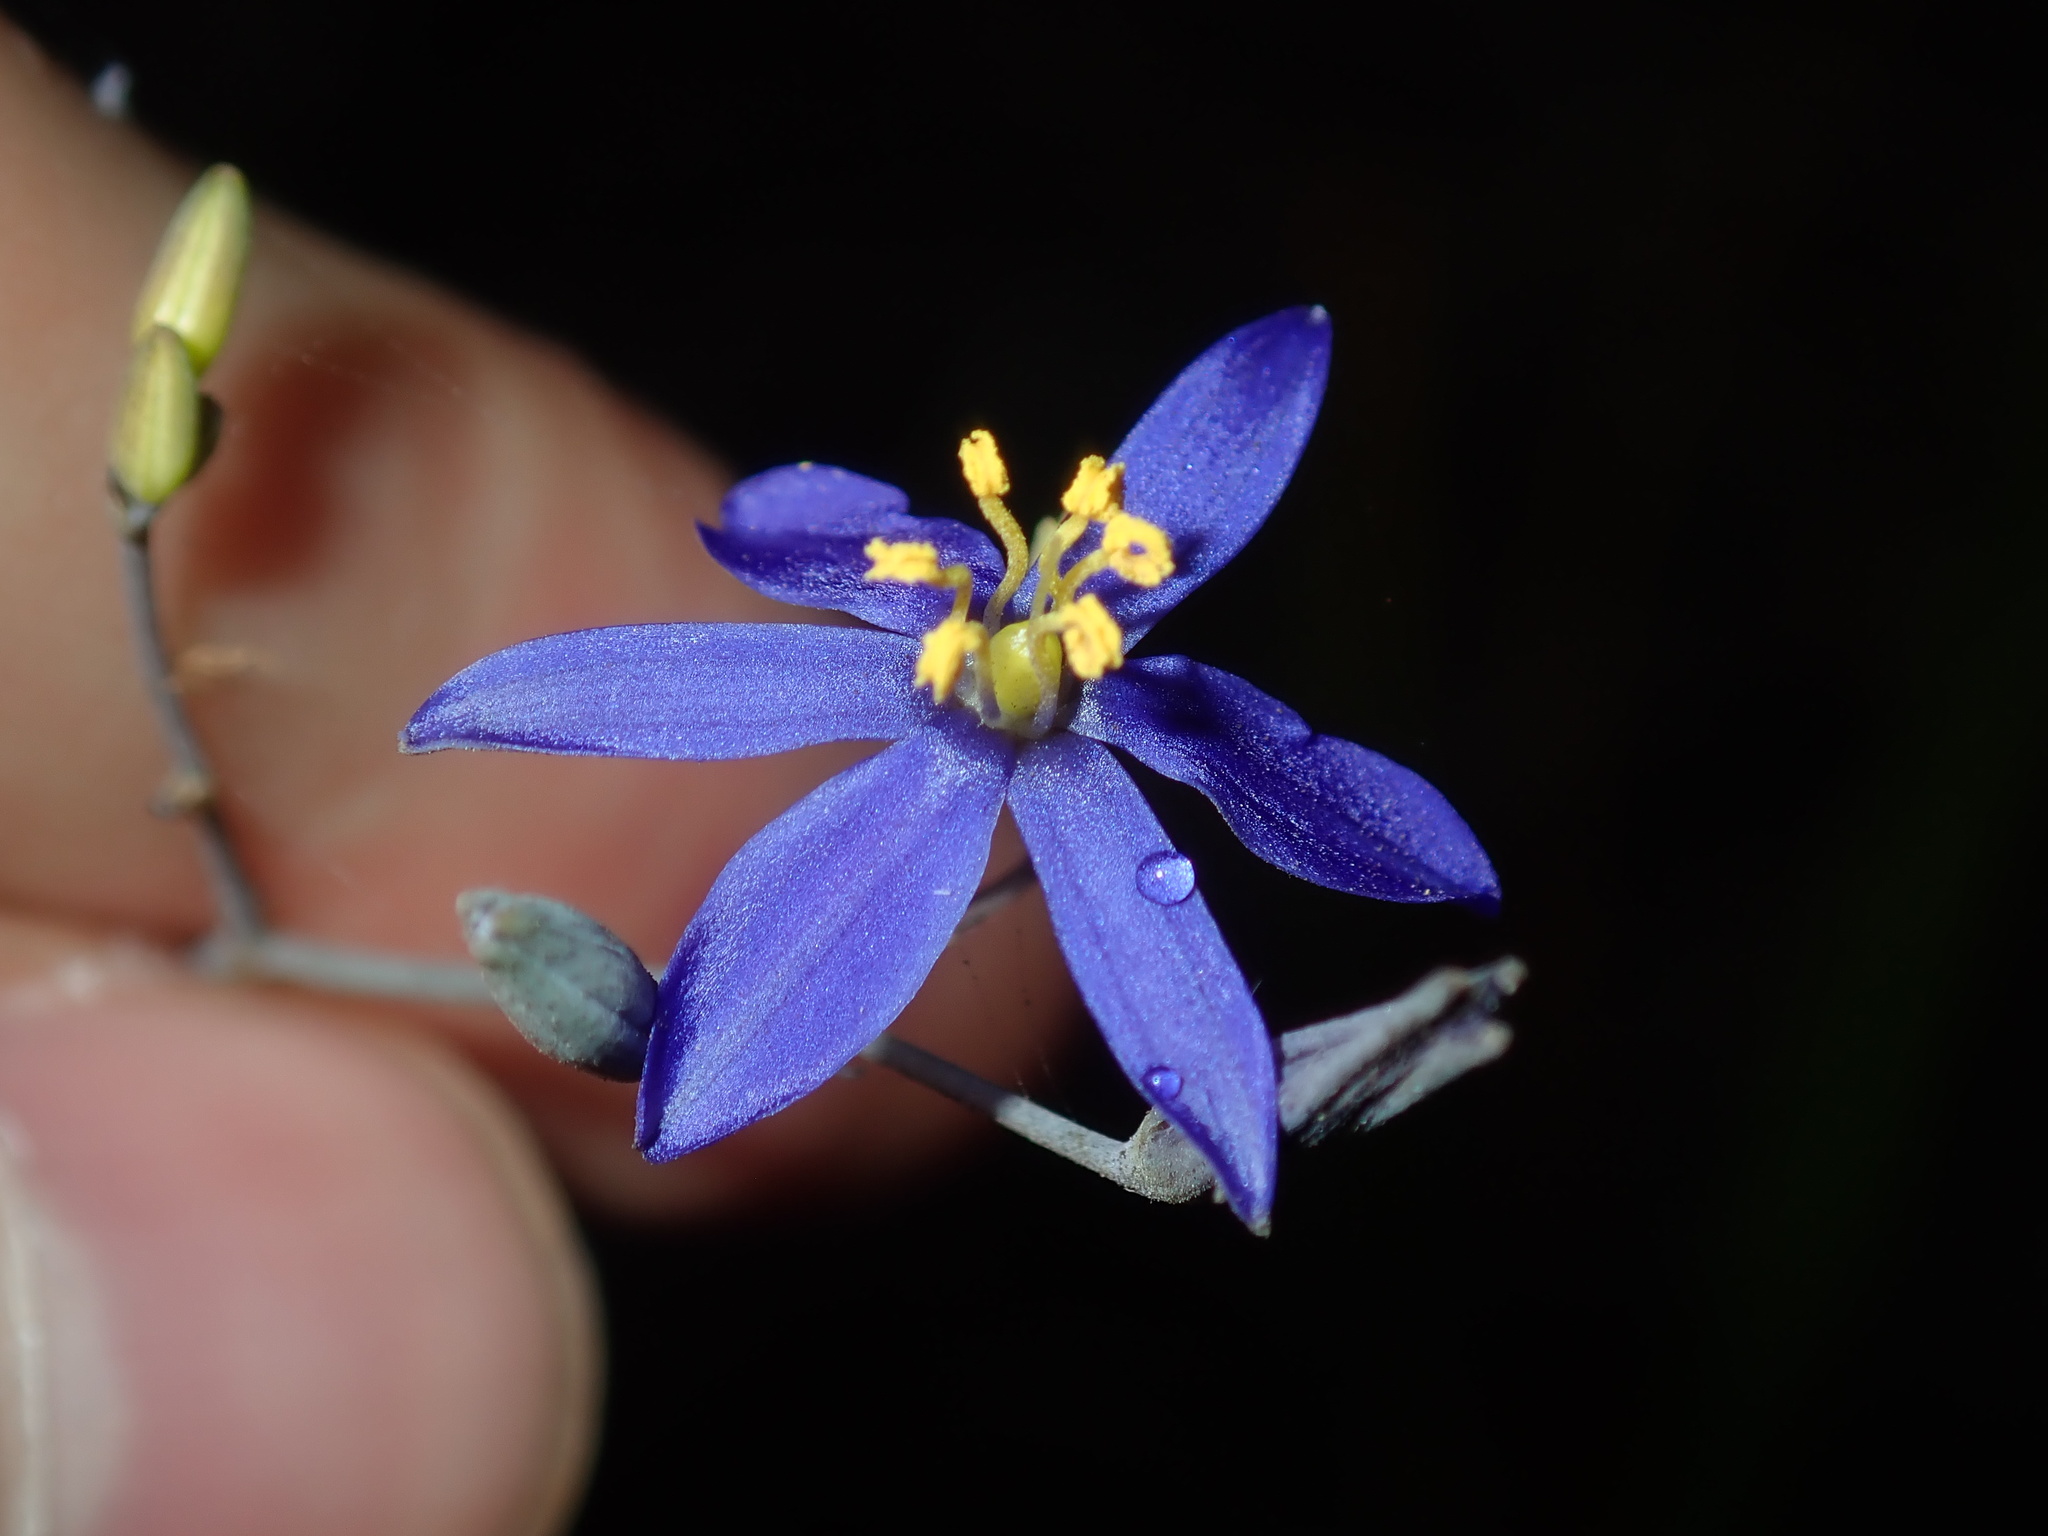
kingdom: Plantae
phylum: Tracheophyta
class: Liliopsida
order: Asparagales
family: Asphodelaceae
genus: Thelionema
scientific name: Thelionema caespitosum
